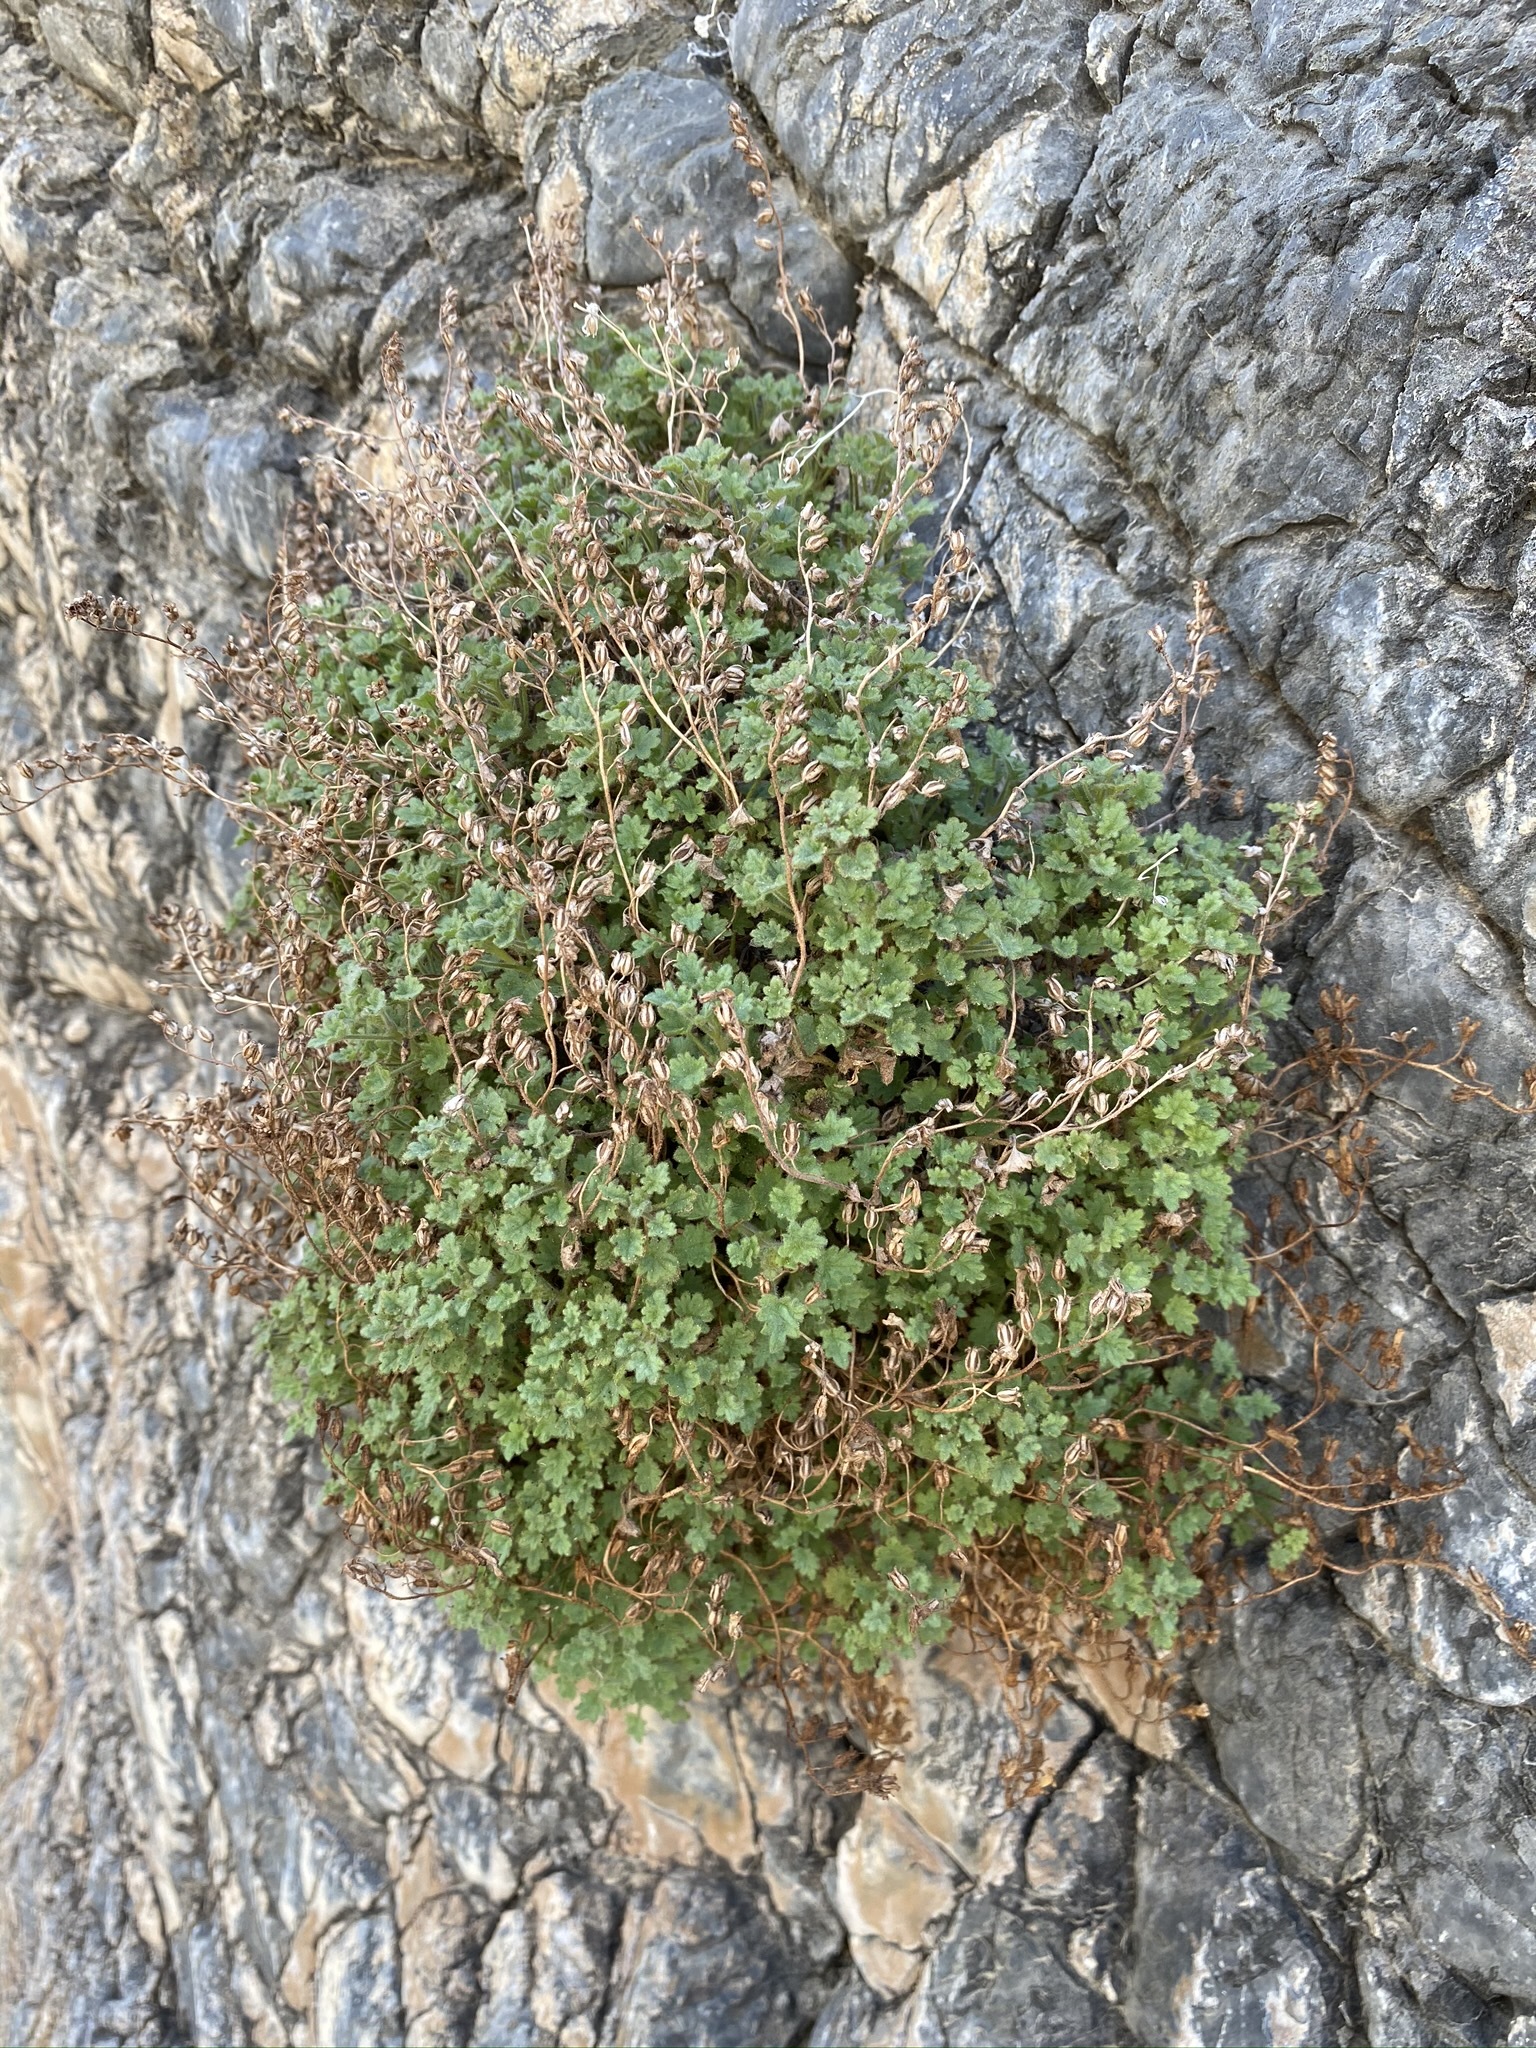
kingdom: Plantae
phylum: Tracheophyta
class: Magnoliopsida
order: Boraginales
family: Hydrophyllaceae
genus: Phacelia
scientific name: Phacelia perityloides
